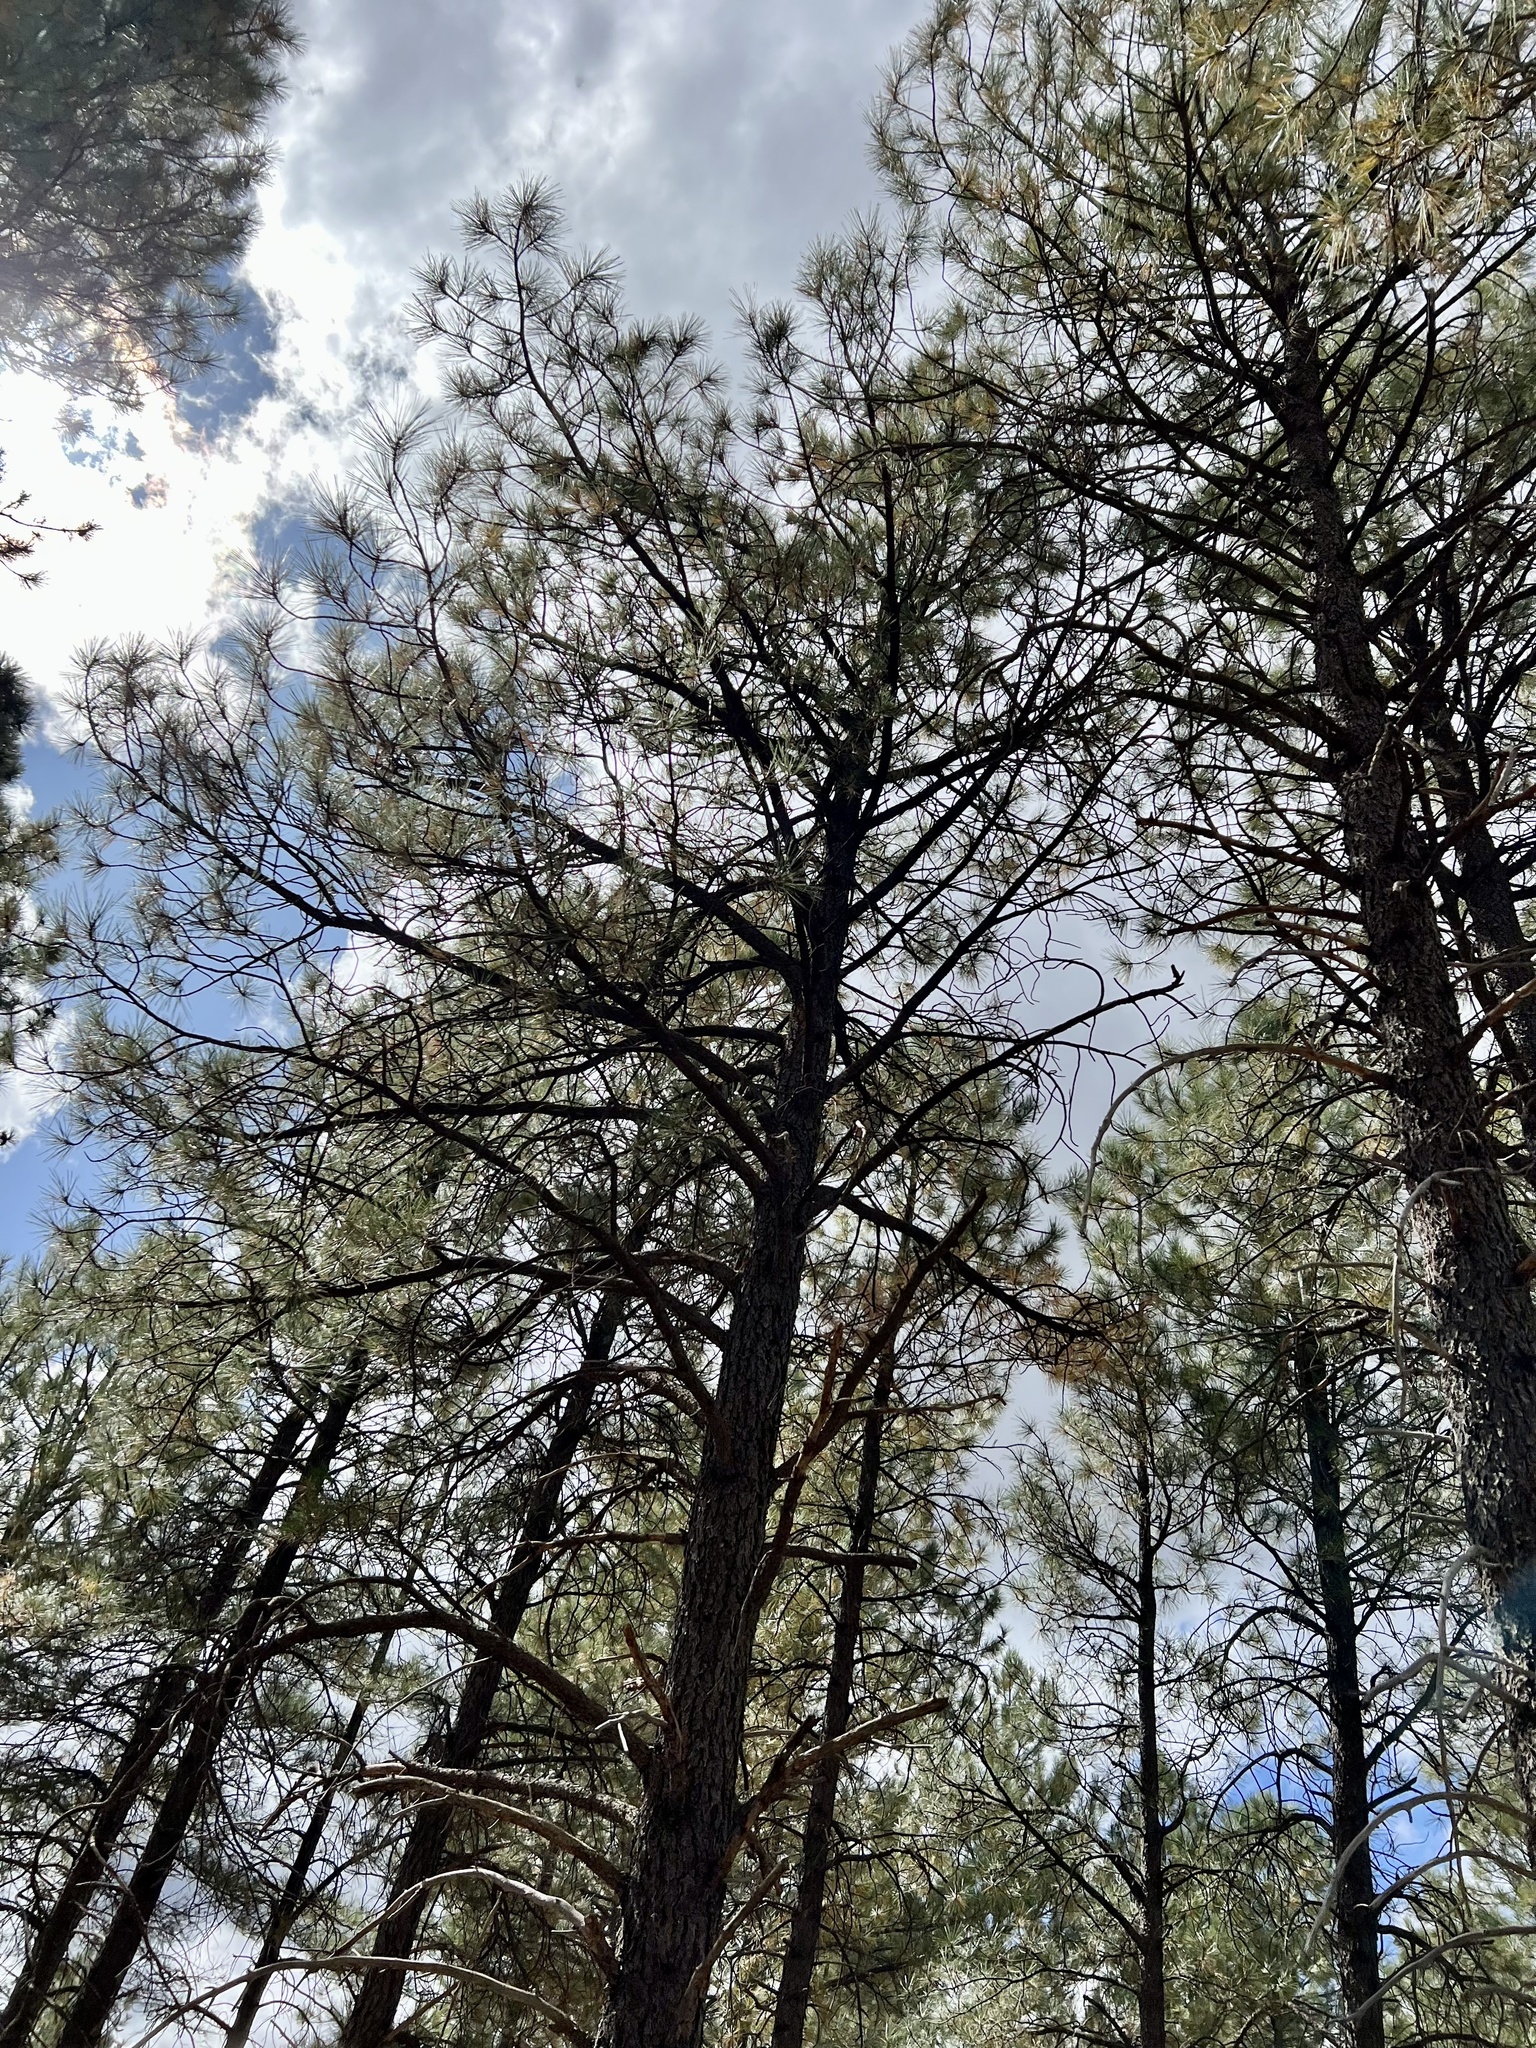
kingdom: Plantae
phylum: Tracheophyta
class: Pinopsida
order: Pinales
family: Pinaceae
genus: Pinus
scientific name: Pinus ponderosa
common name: Western yellow-pine
